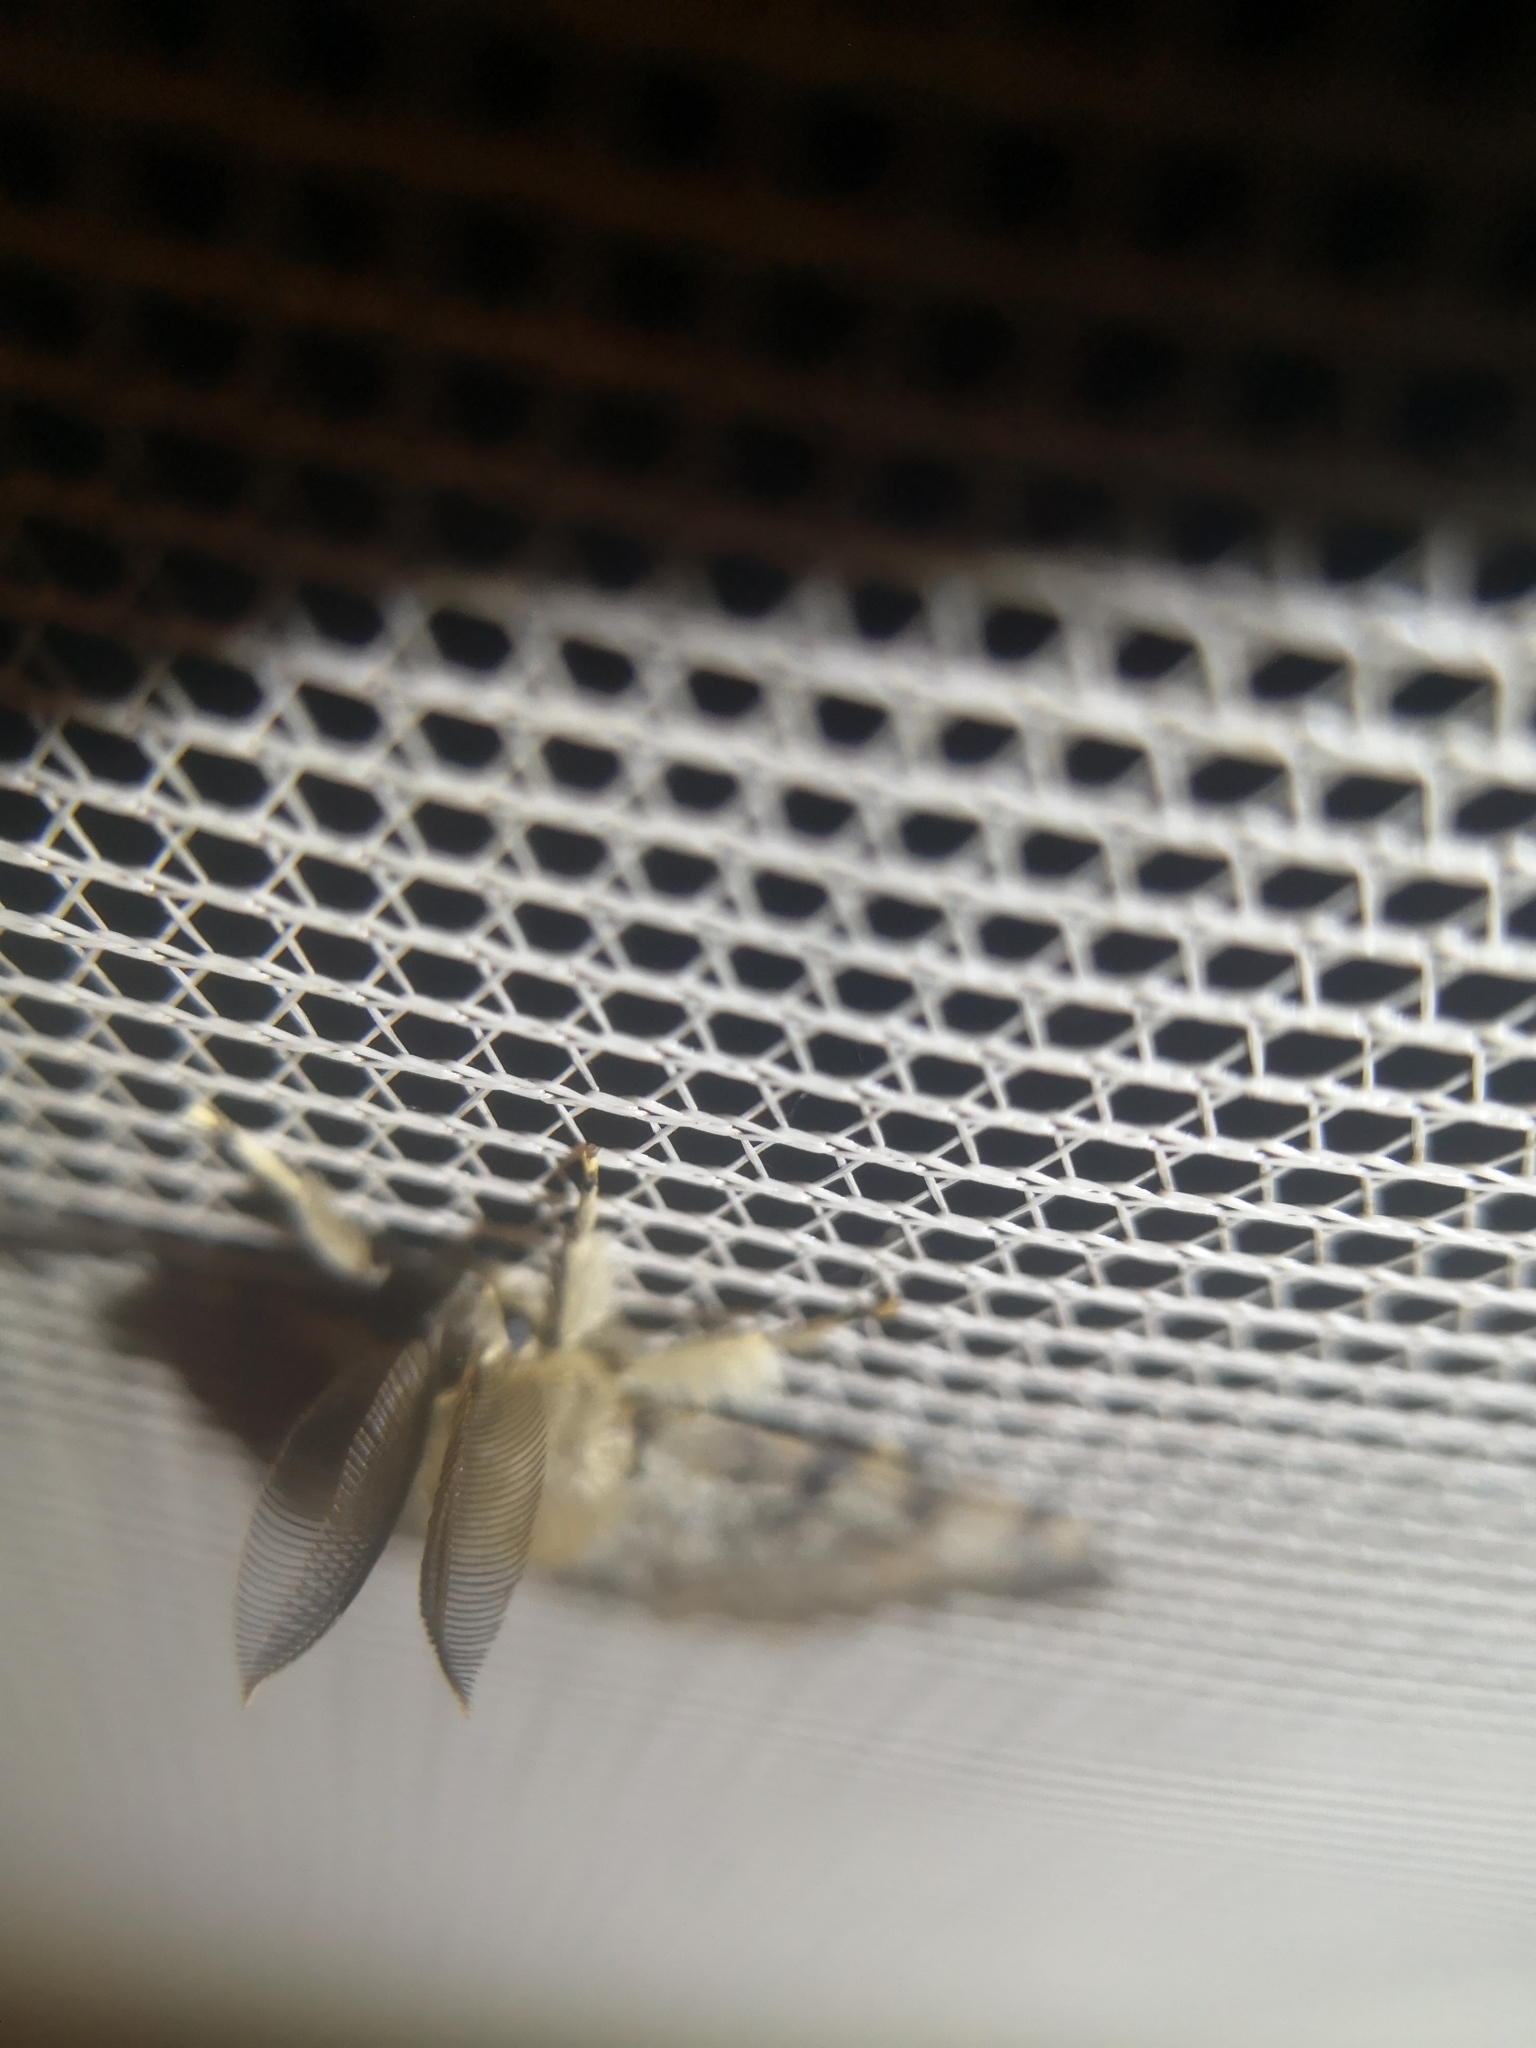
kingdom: Animalia
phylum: Arthropoda
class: Insecta
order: Lepidoptera
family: Erebidae
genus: Lymantria
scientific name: Lymantria dispar
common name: Gypsy moth
